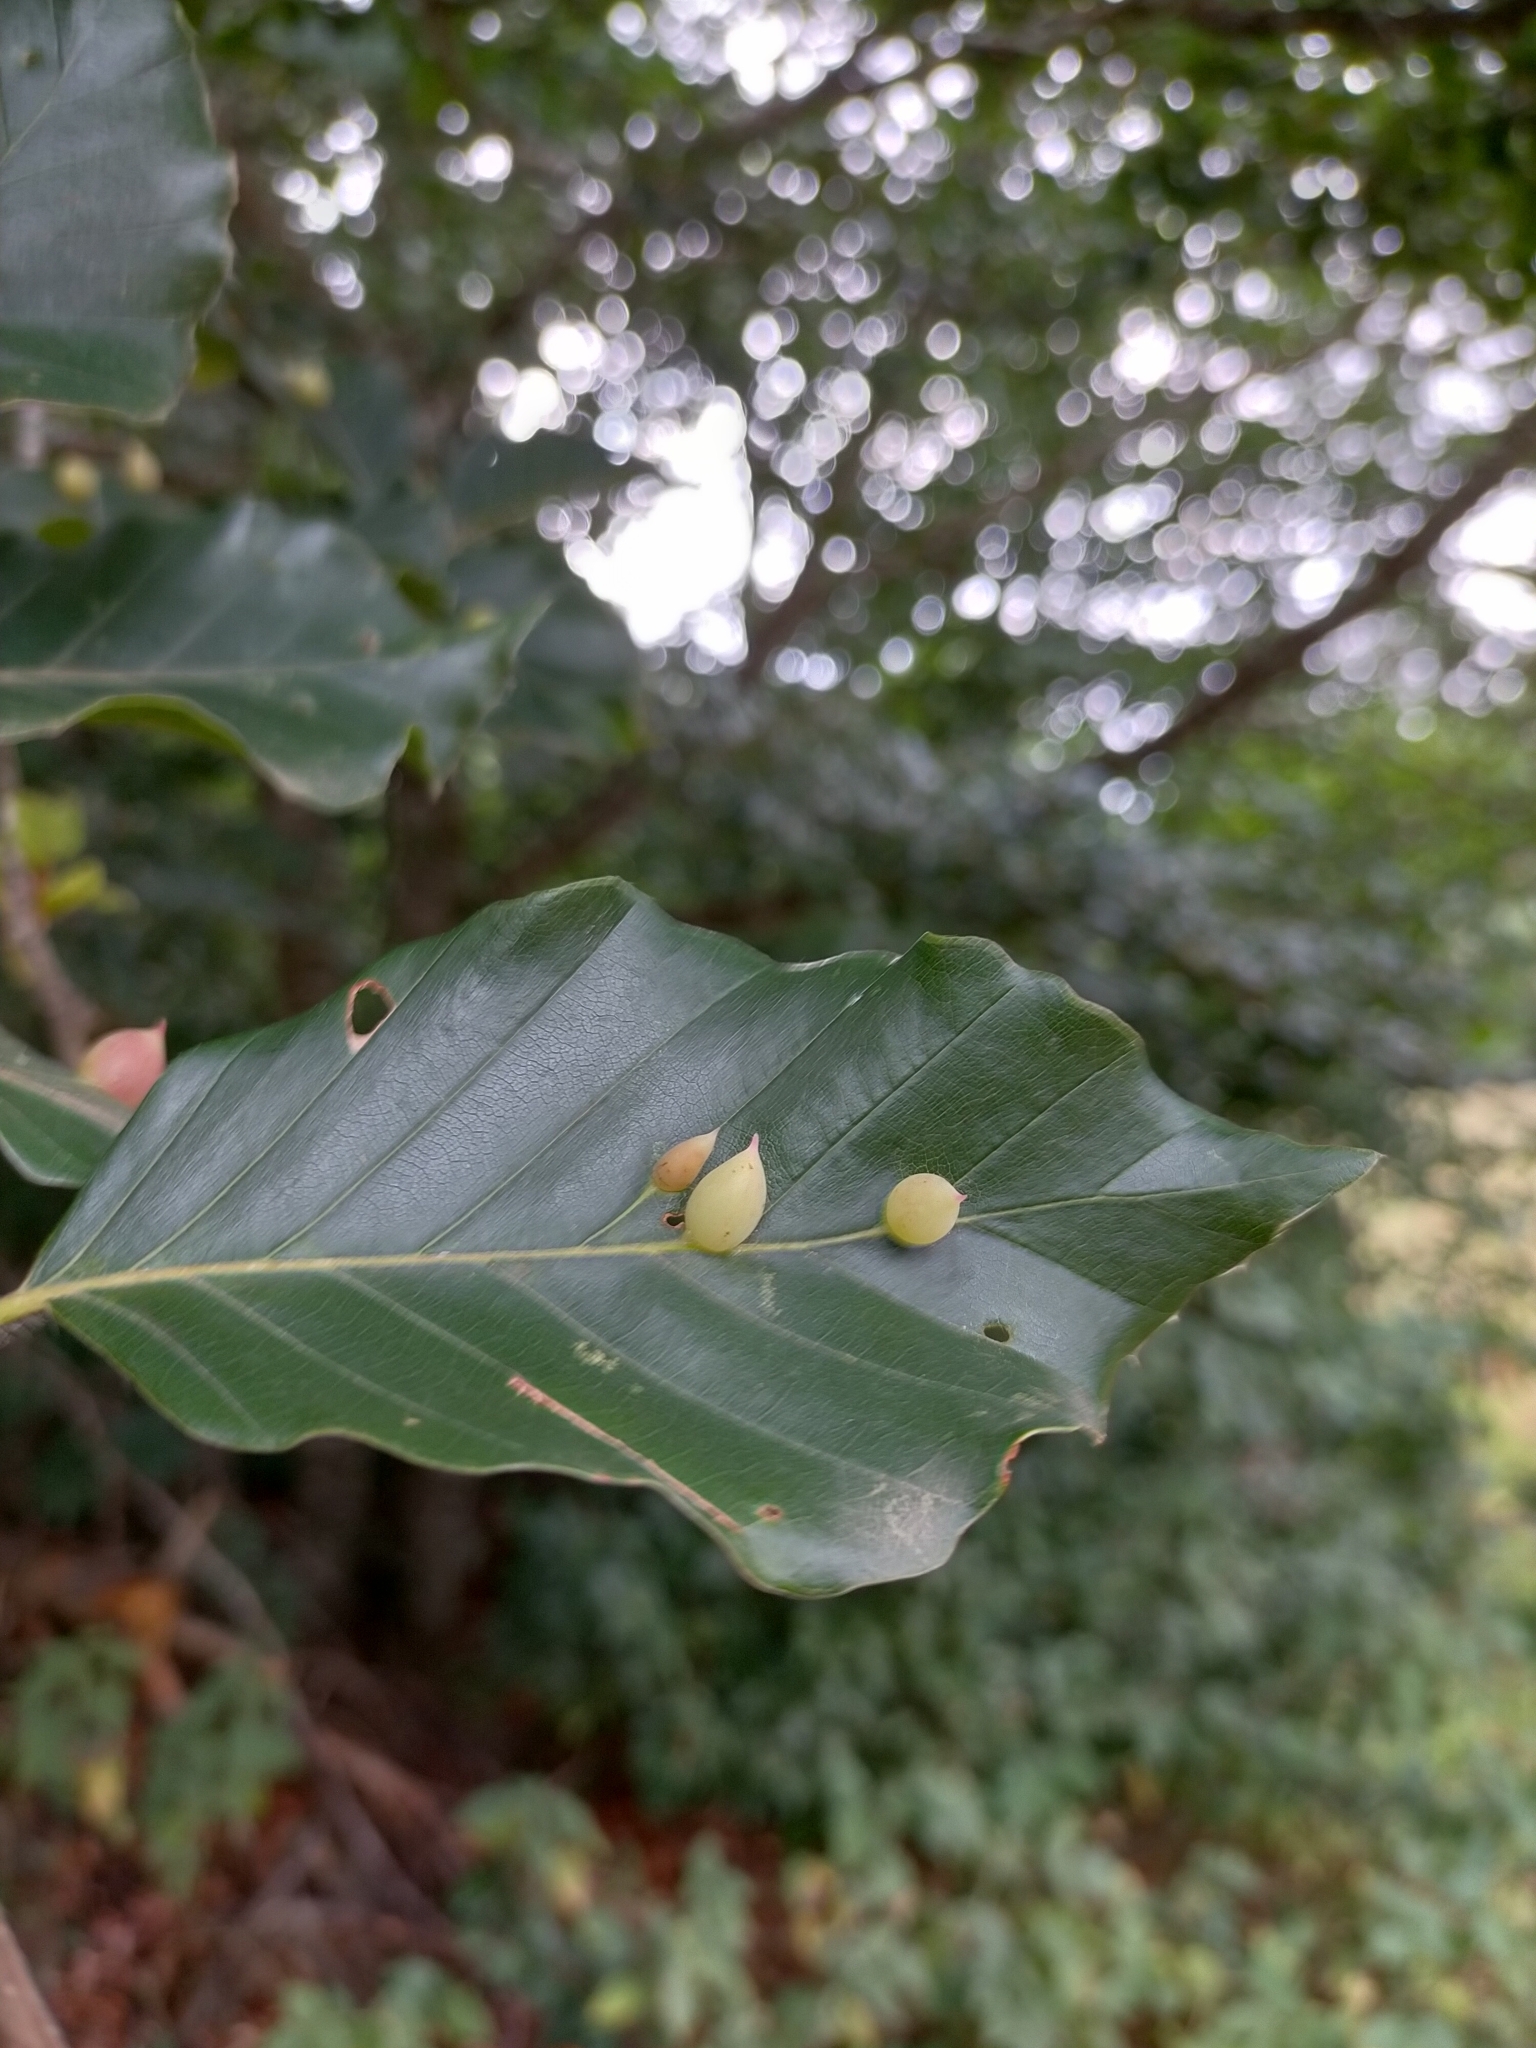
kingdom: Animalia
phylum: Arthropoda
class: Insecta
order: Diptera
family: Cecidomyiidae
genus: Mikiola
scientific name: Mikiola fagi
